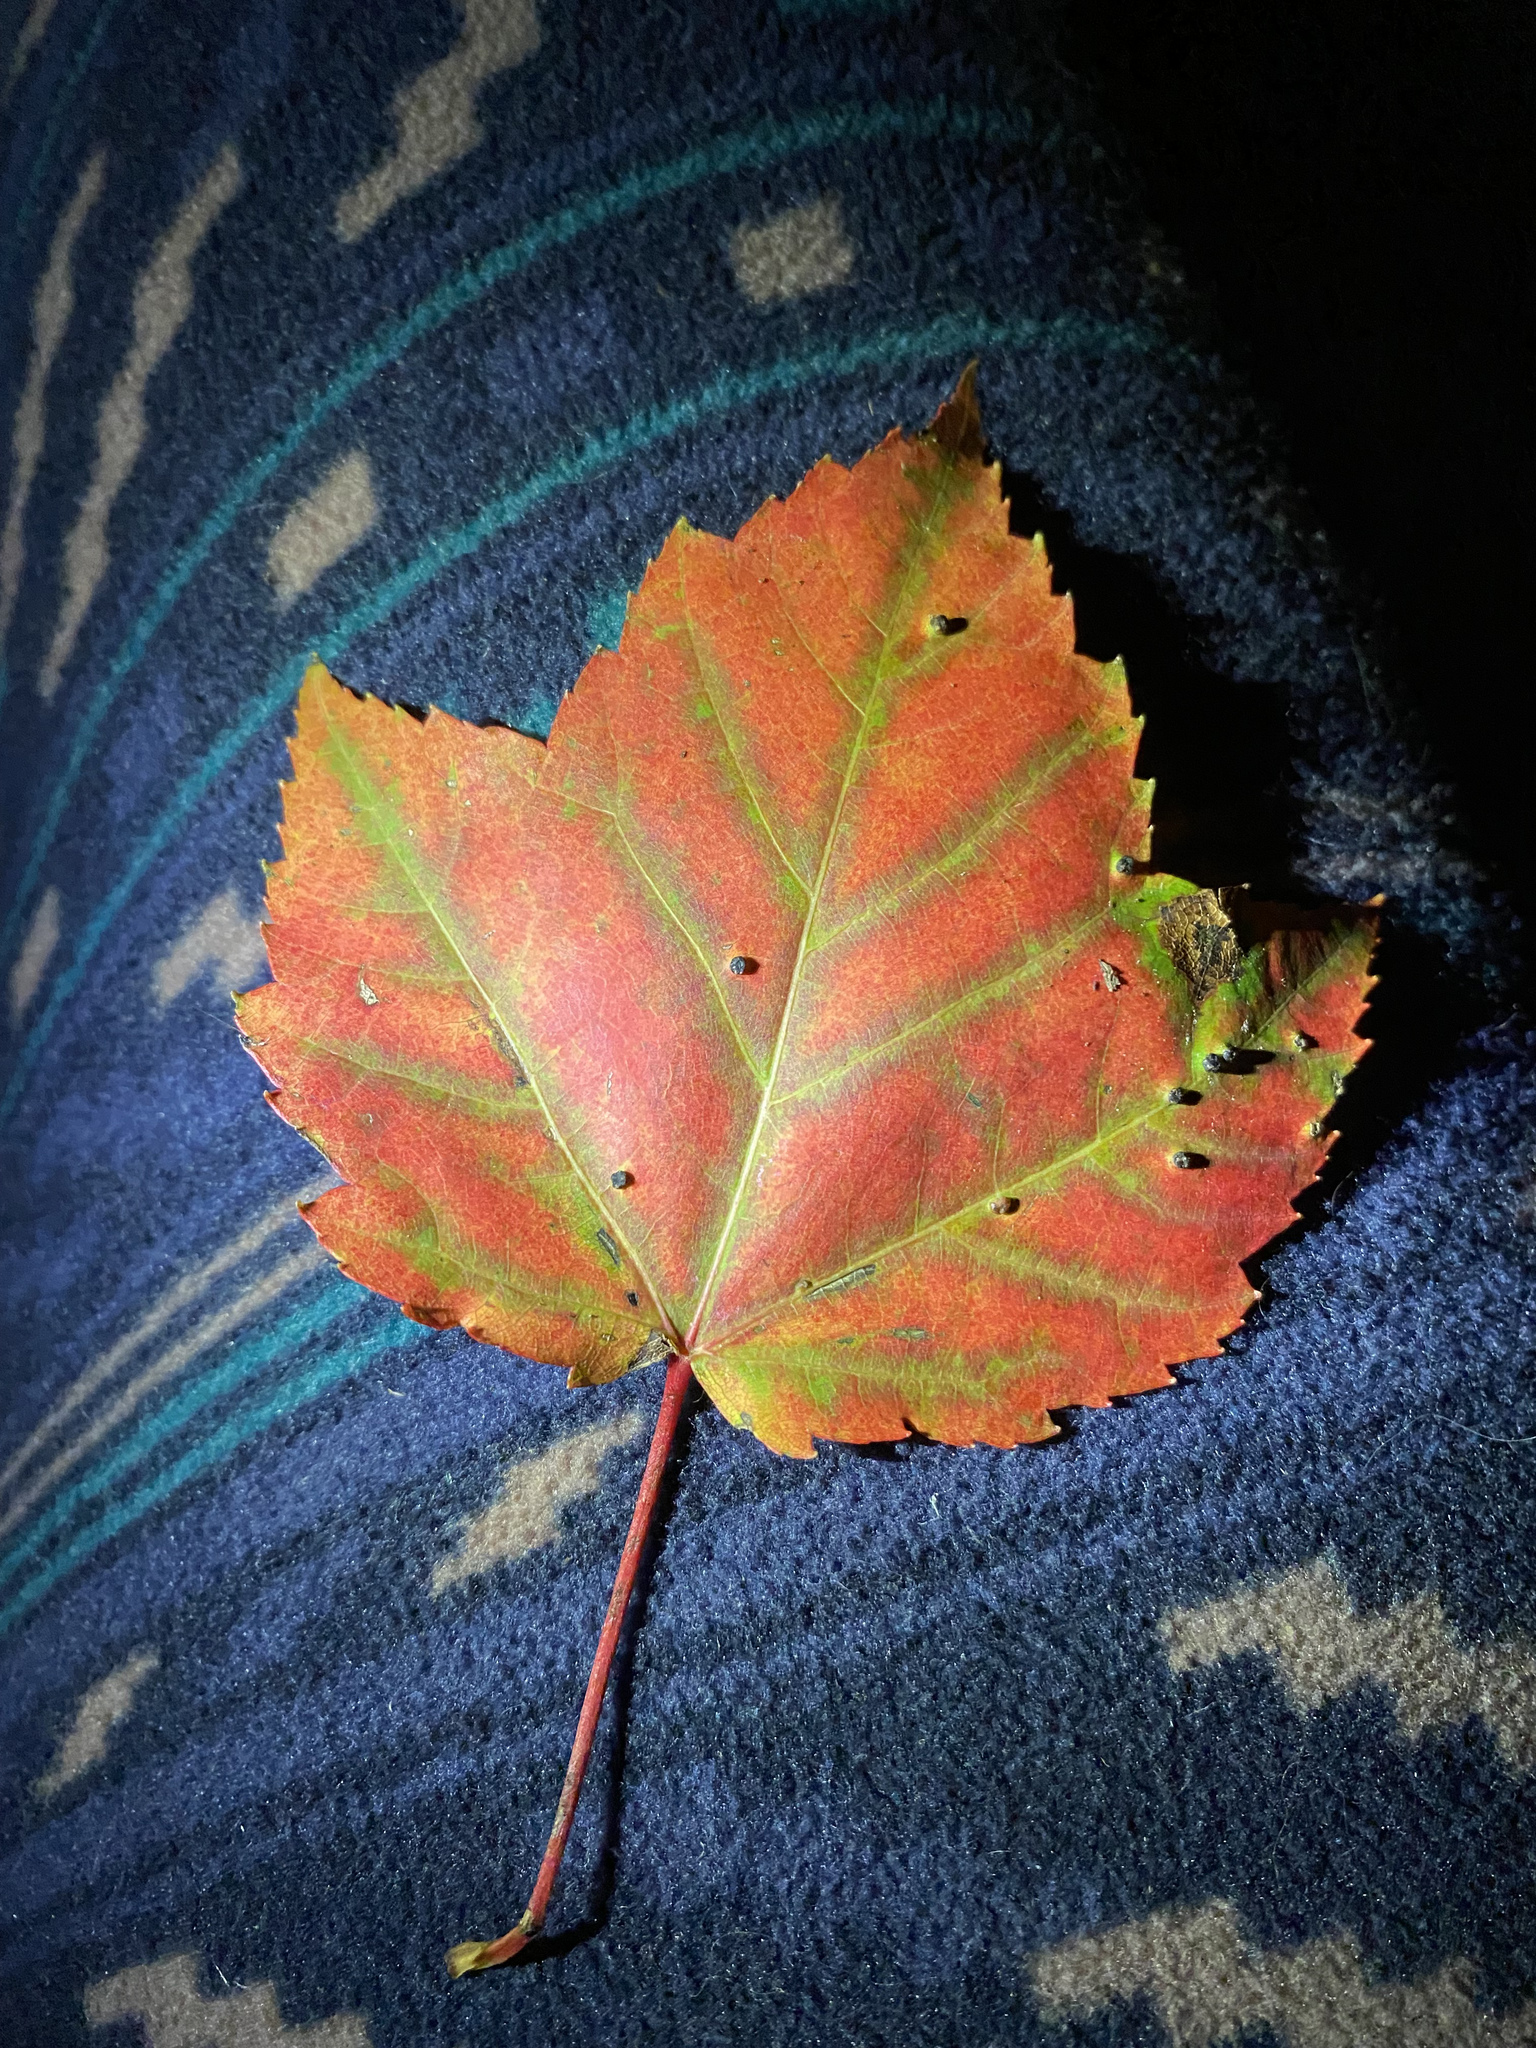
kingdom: Plantae
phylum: Tracheophyta
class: Magnoliopsida
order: Sapindales
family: Sapindaceae
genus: Acer
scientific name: Acer rubrum
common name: Red maple
